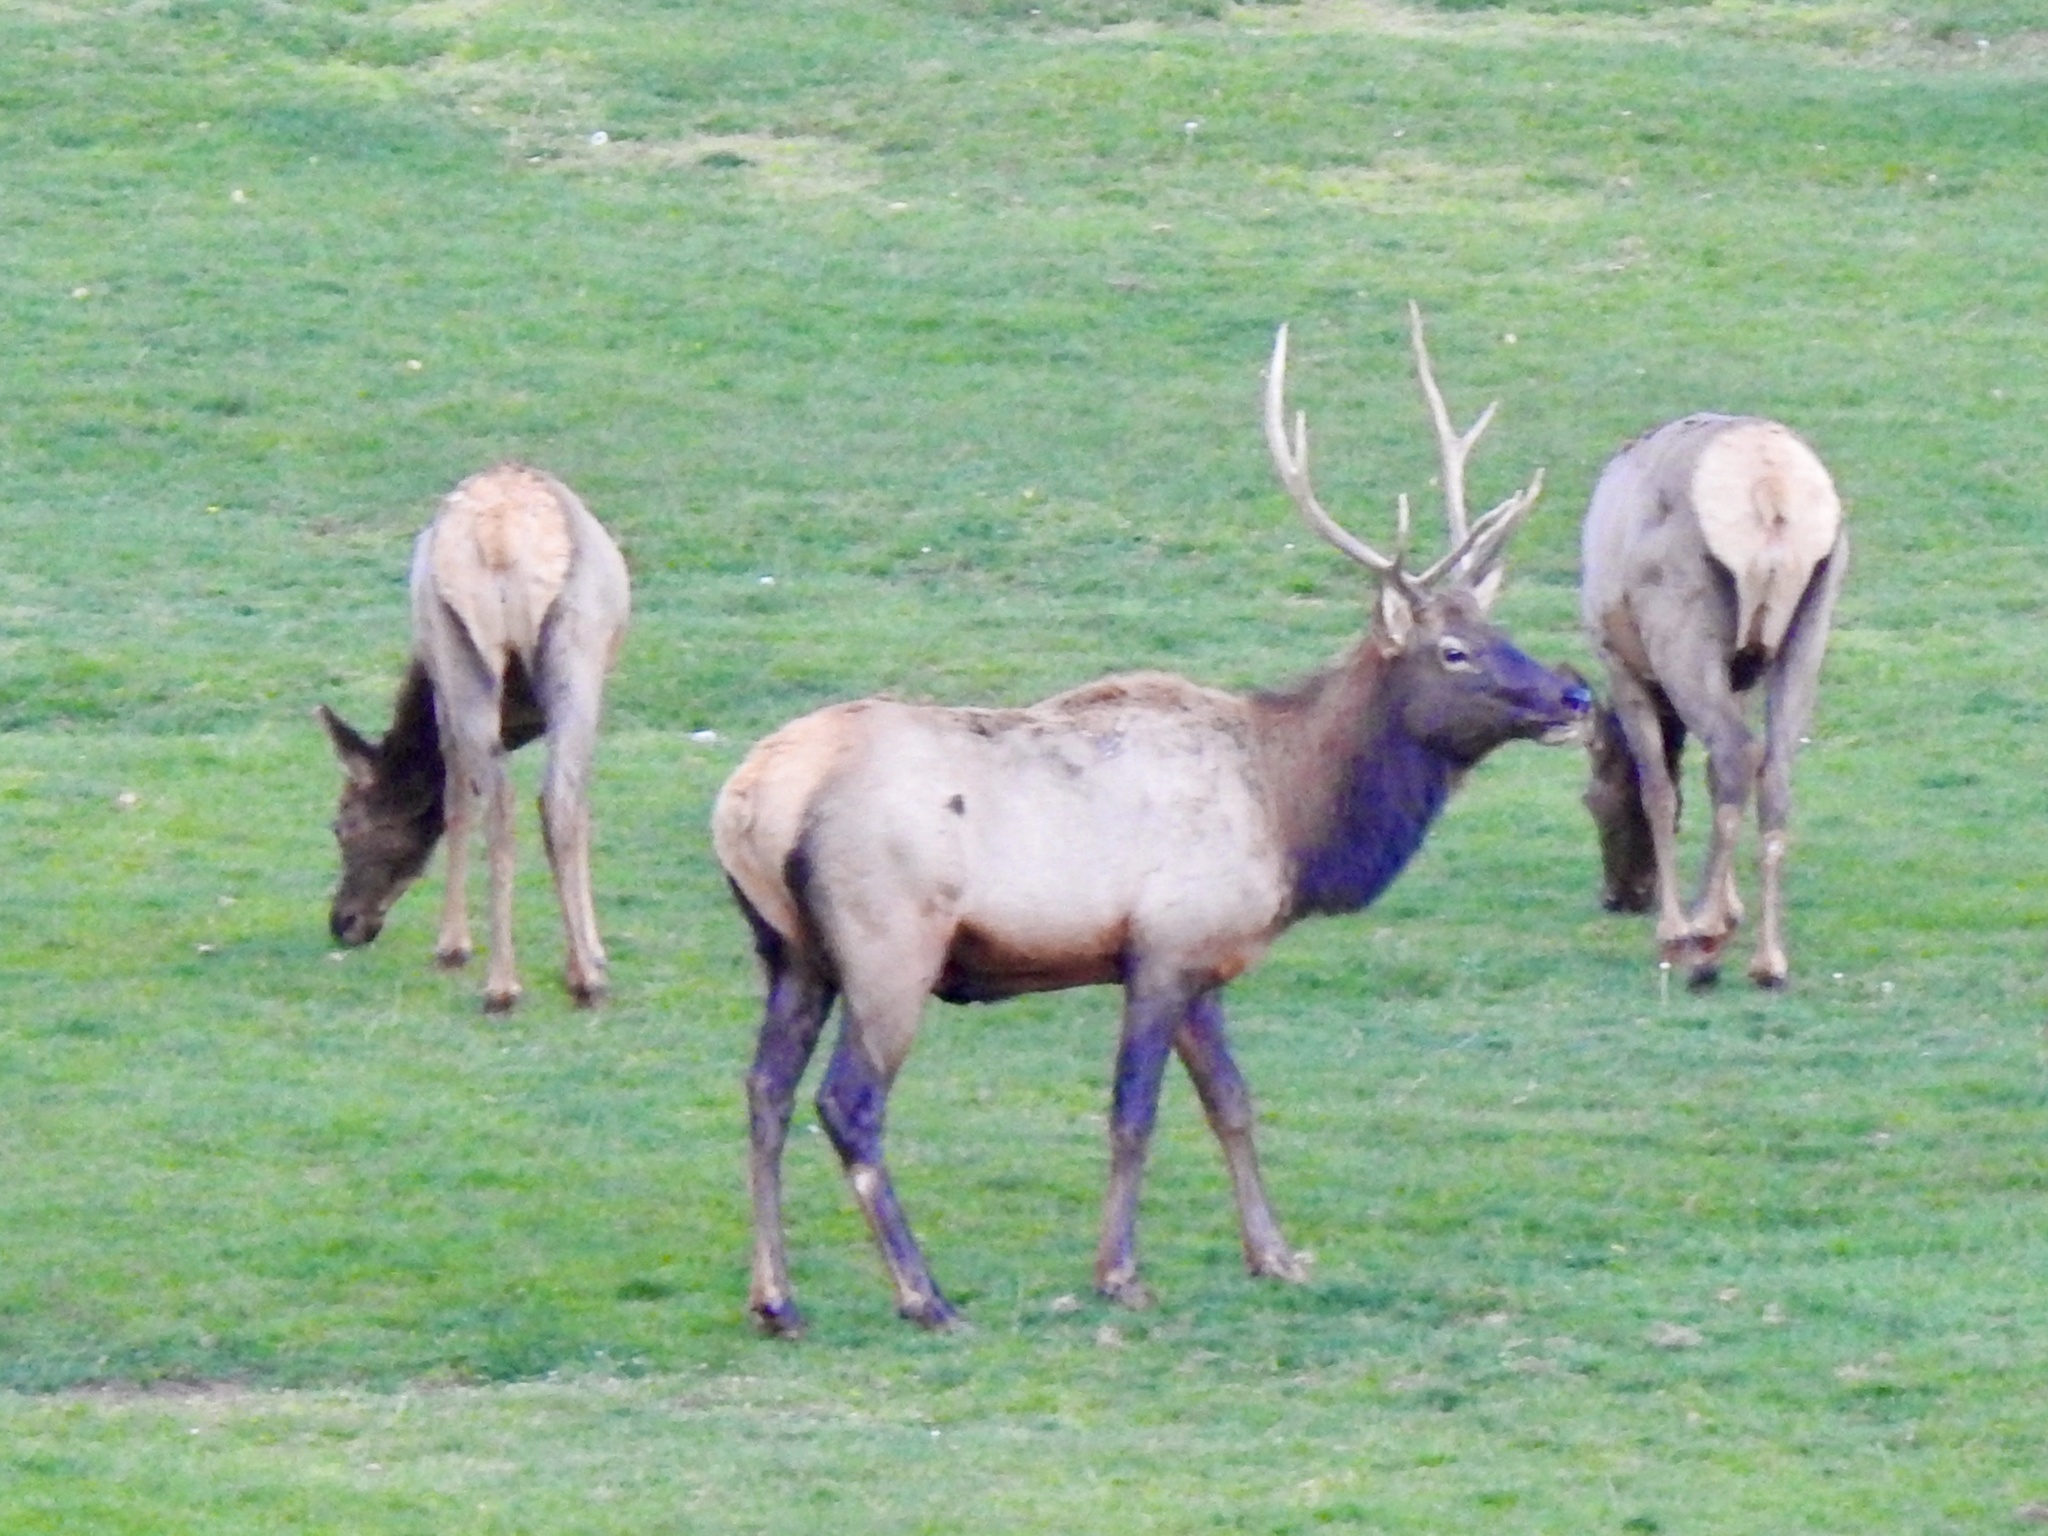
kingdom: Animalia
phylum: Chordata
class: Mammalia
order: Artiodactyla
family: Cervidae
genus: Cervus
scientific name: Cervus elaphus
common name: Red deer
